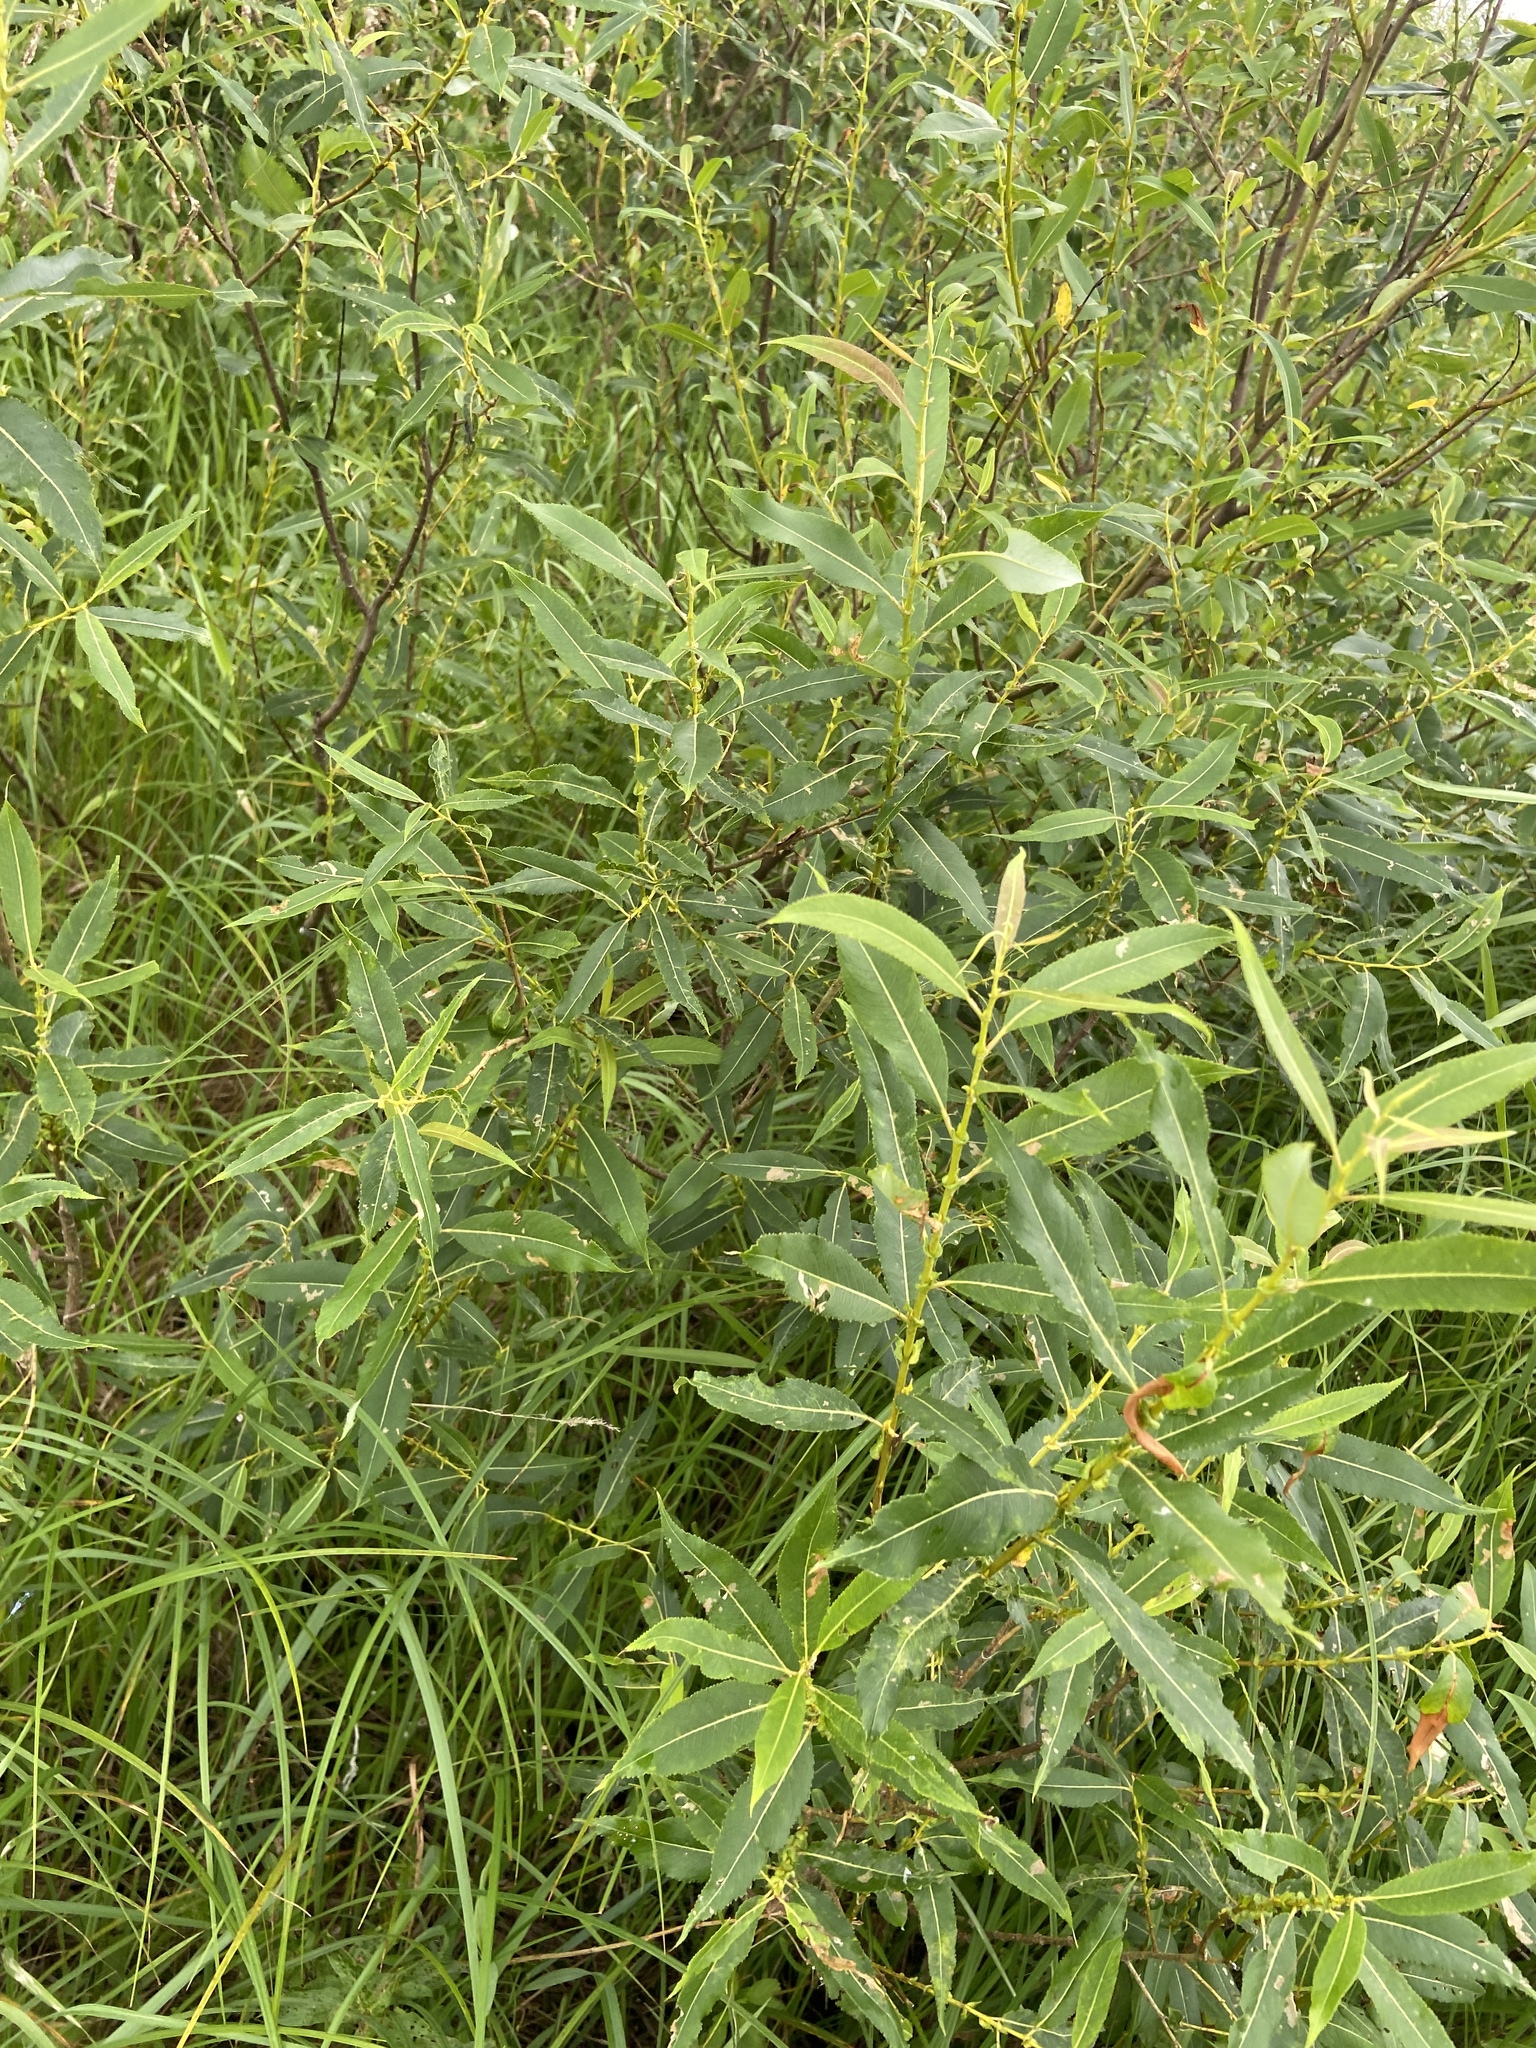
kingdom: Plantae
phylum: Tracheophyta
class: Magnoliopsida
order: Malpighiales
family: Salicaceae
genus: Salix
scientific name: Salix triandra
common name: Almond willow
